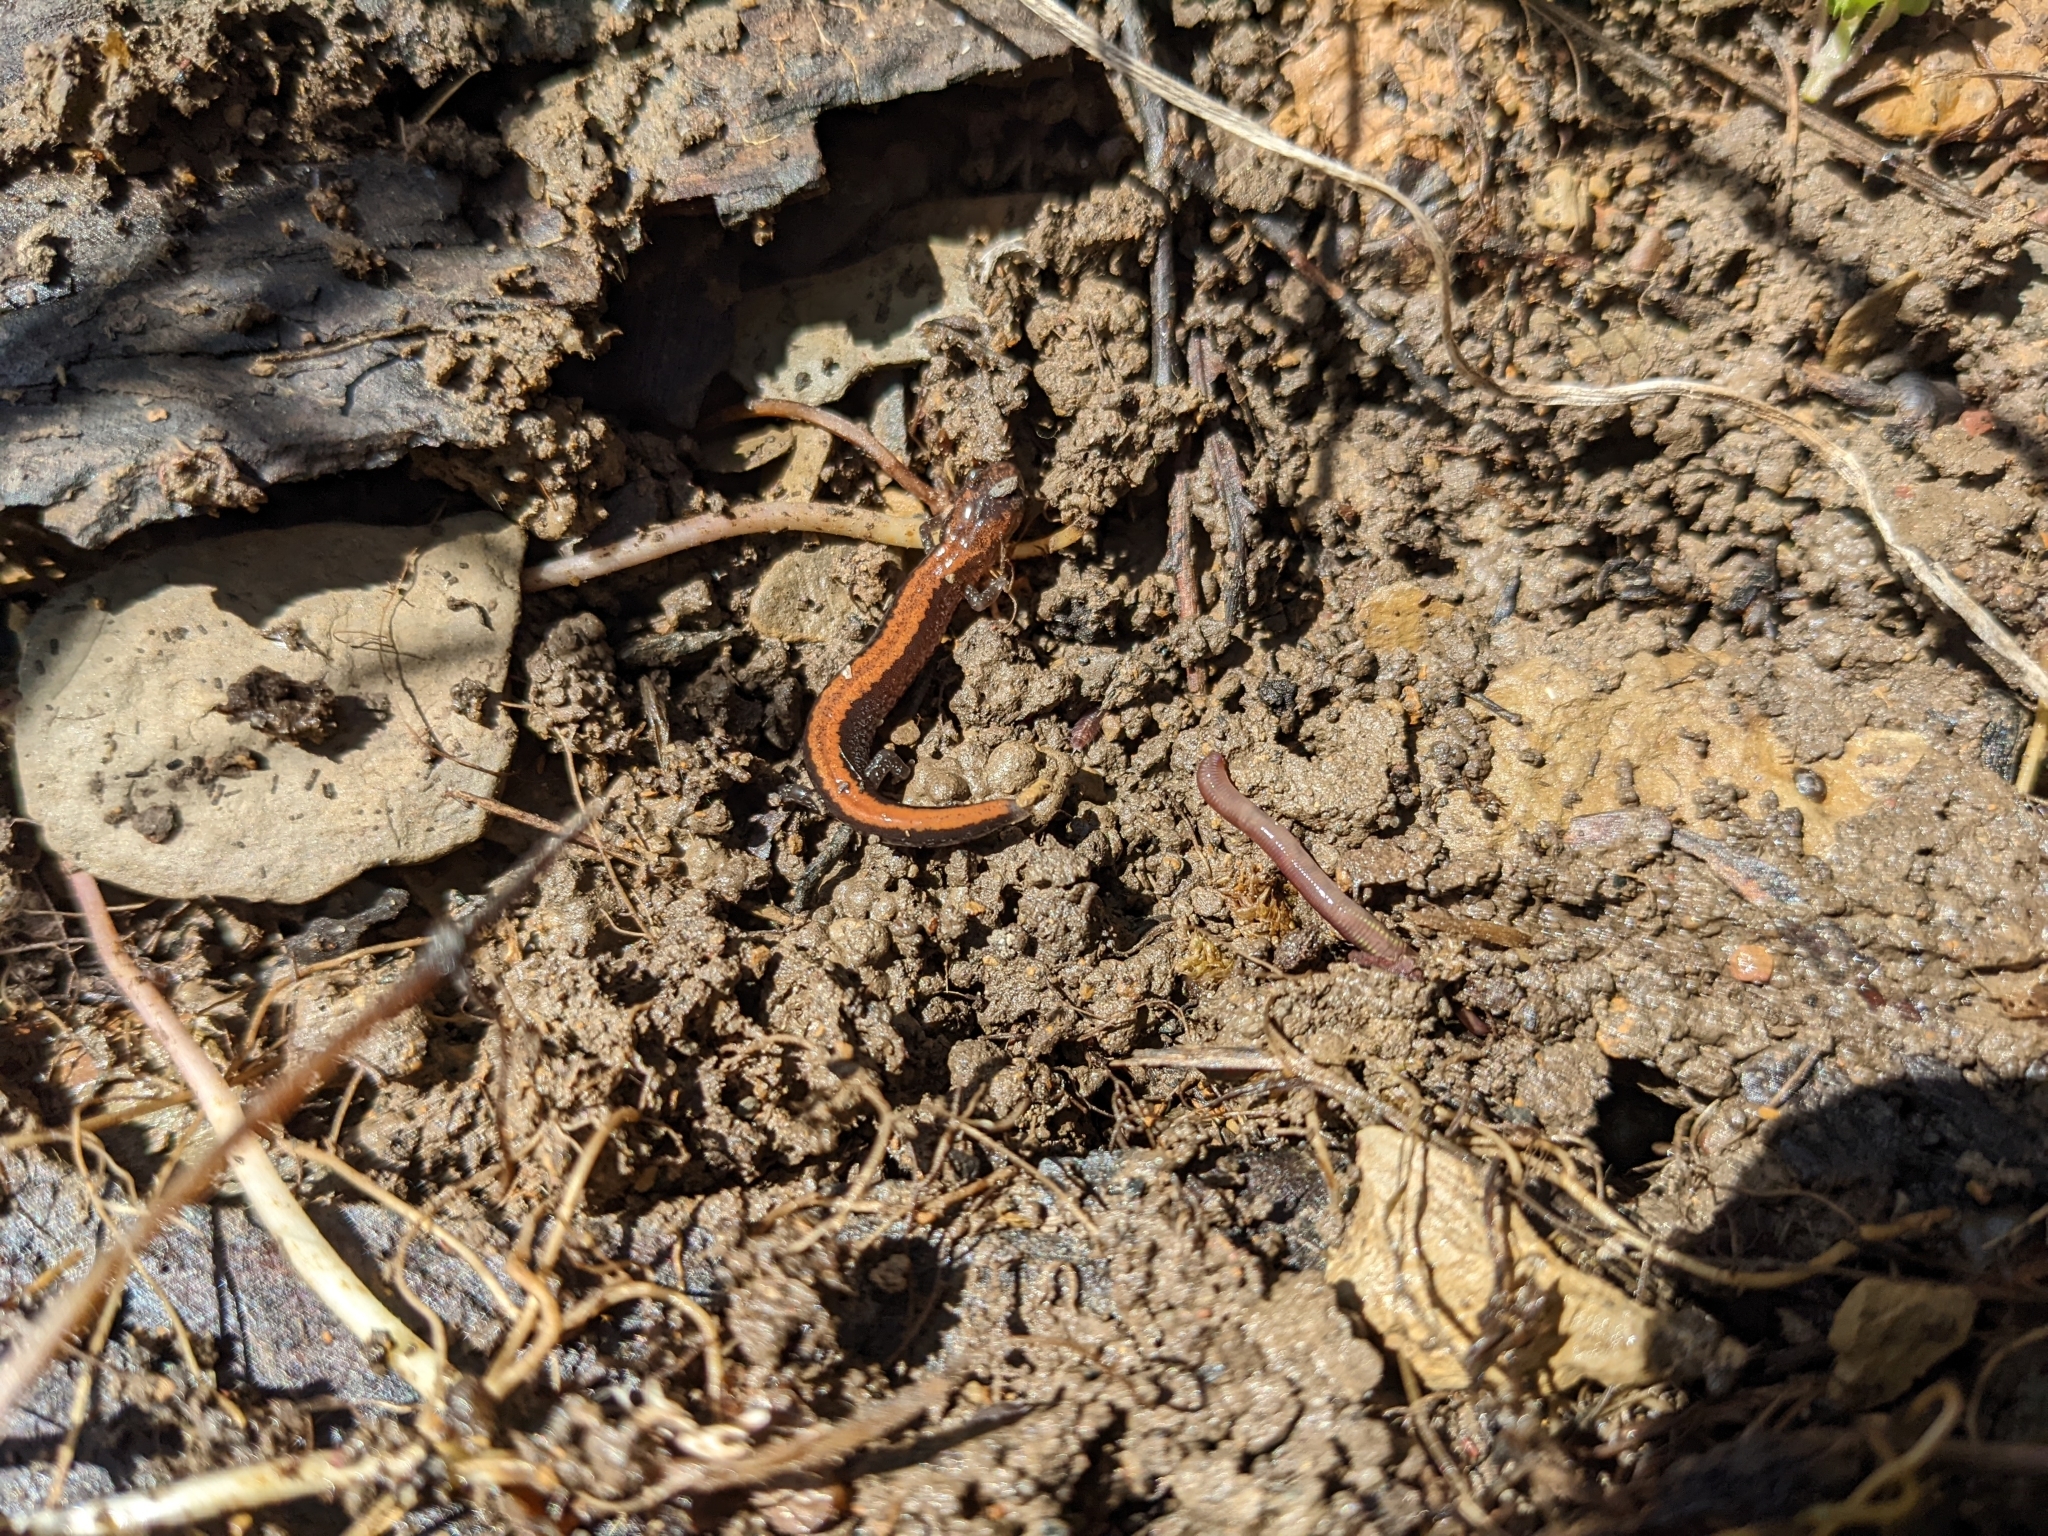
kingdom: Animalia
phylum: Chordata
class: Amphibia
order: Caudata
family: Plethodontidae
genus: Plethodon
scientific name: Plethodon cinereus
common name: Redback salamander
